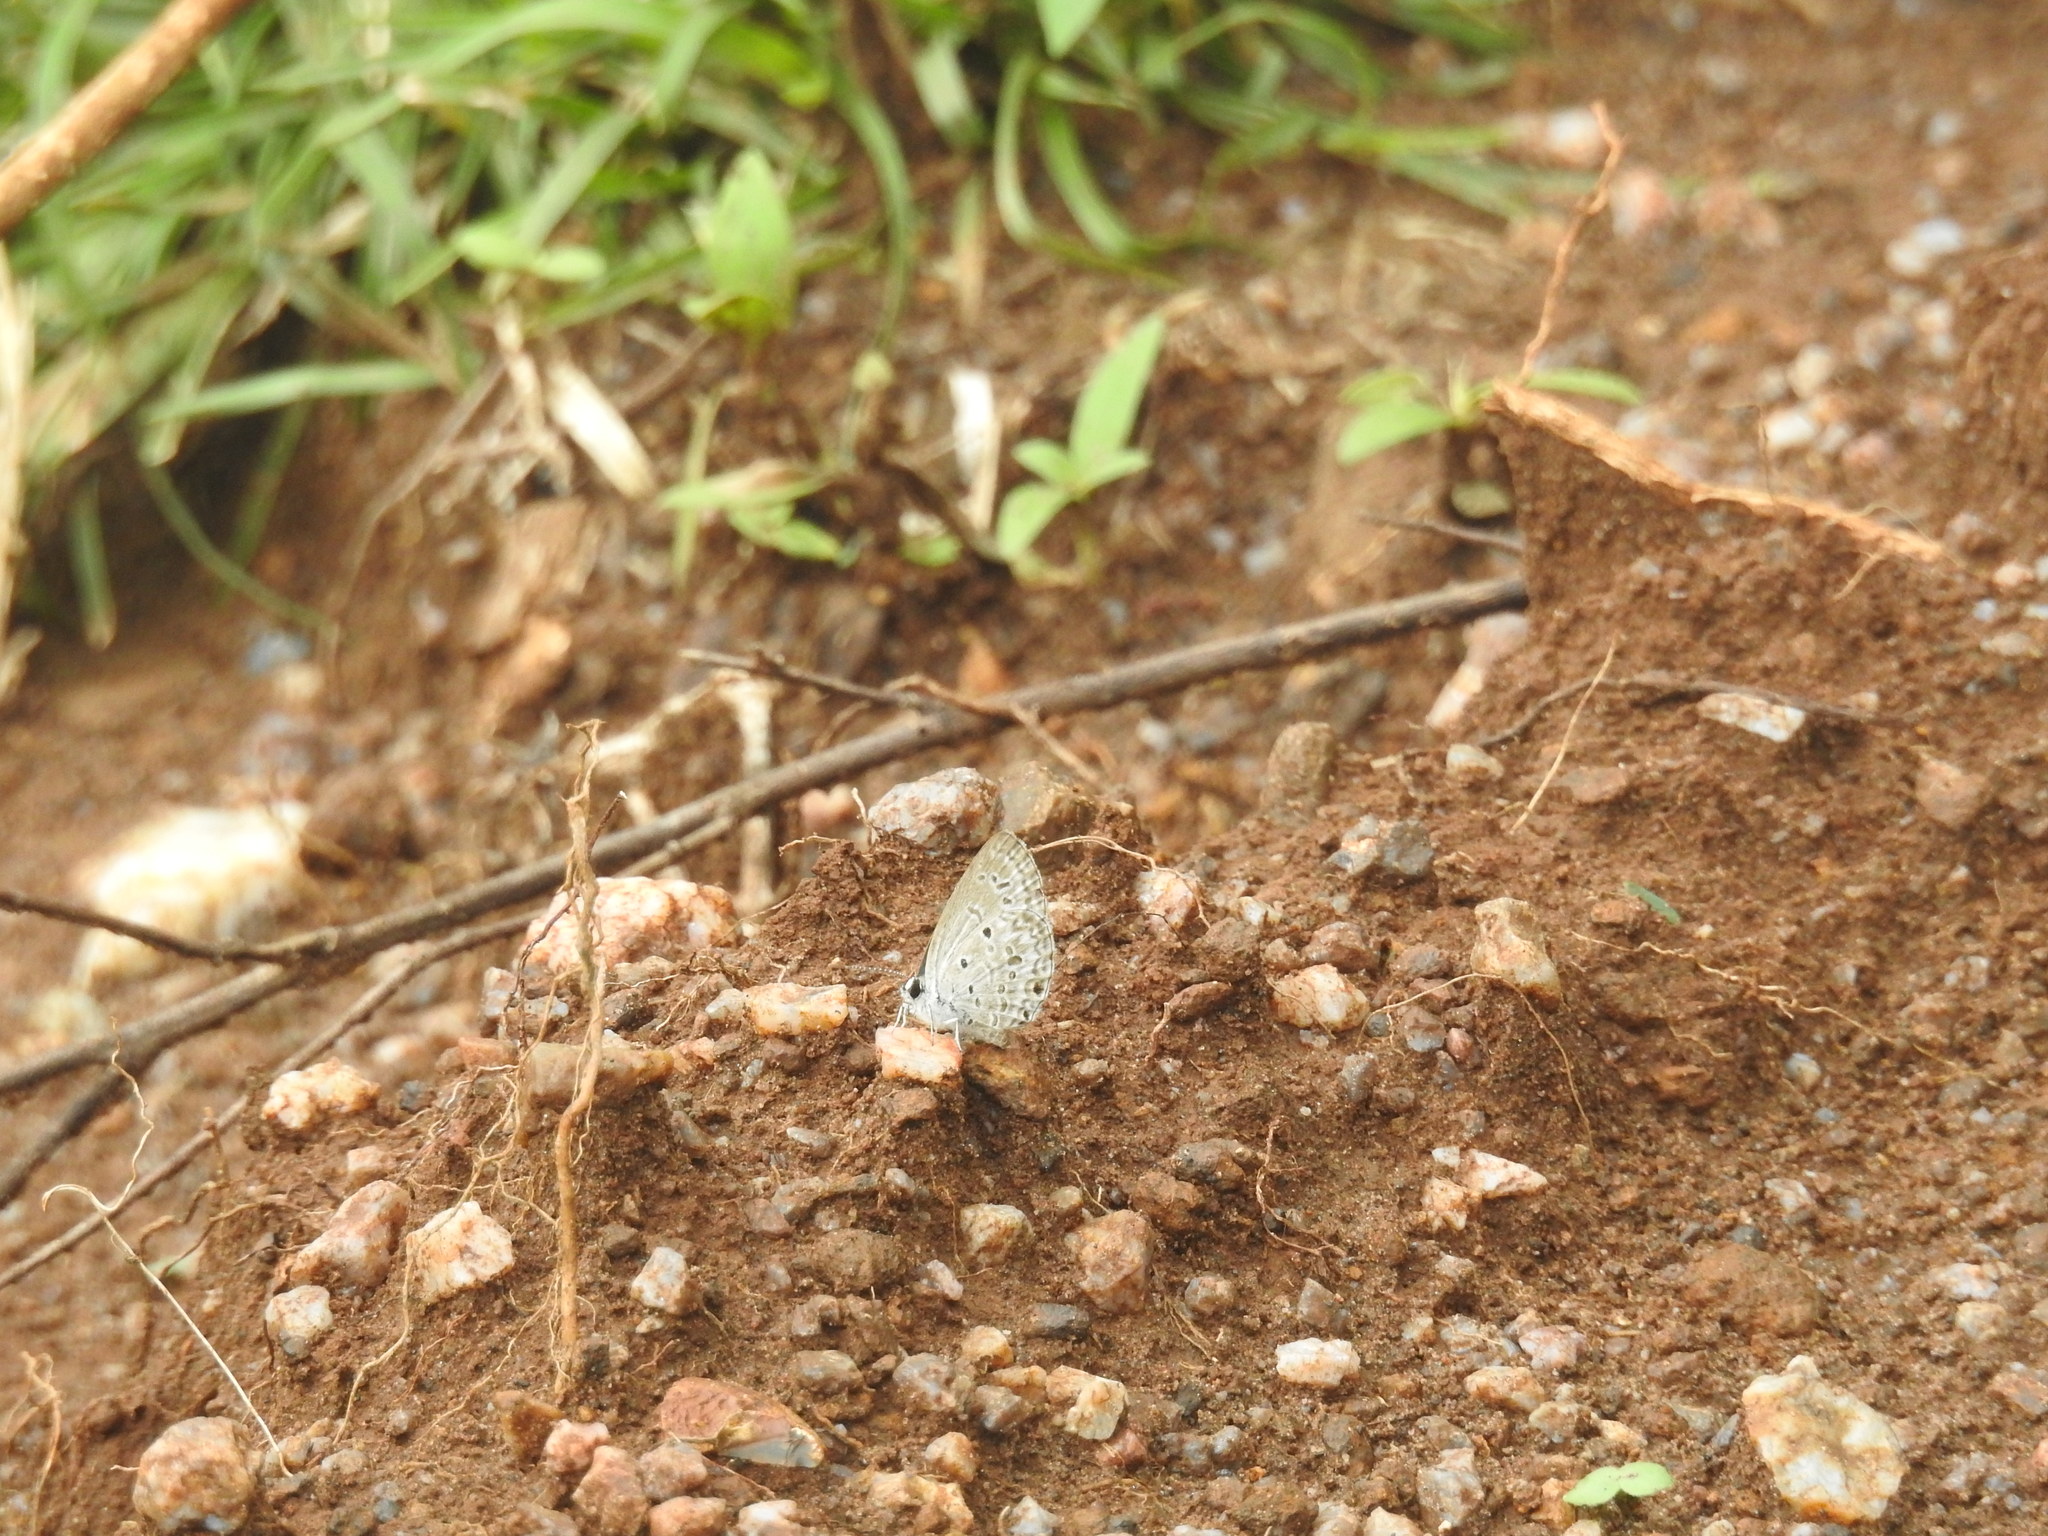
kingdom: Animalia
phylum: Arthropoda
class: Insecta
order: Lepidoptera
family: Lycaenidae
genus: Chilades
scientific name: Chilades laius
